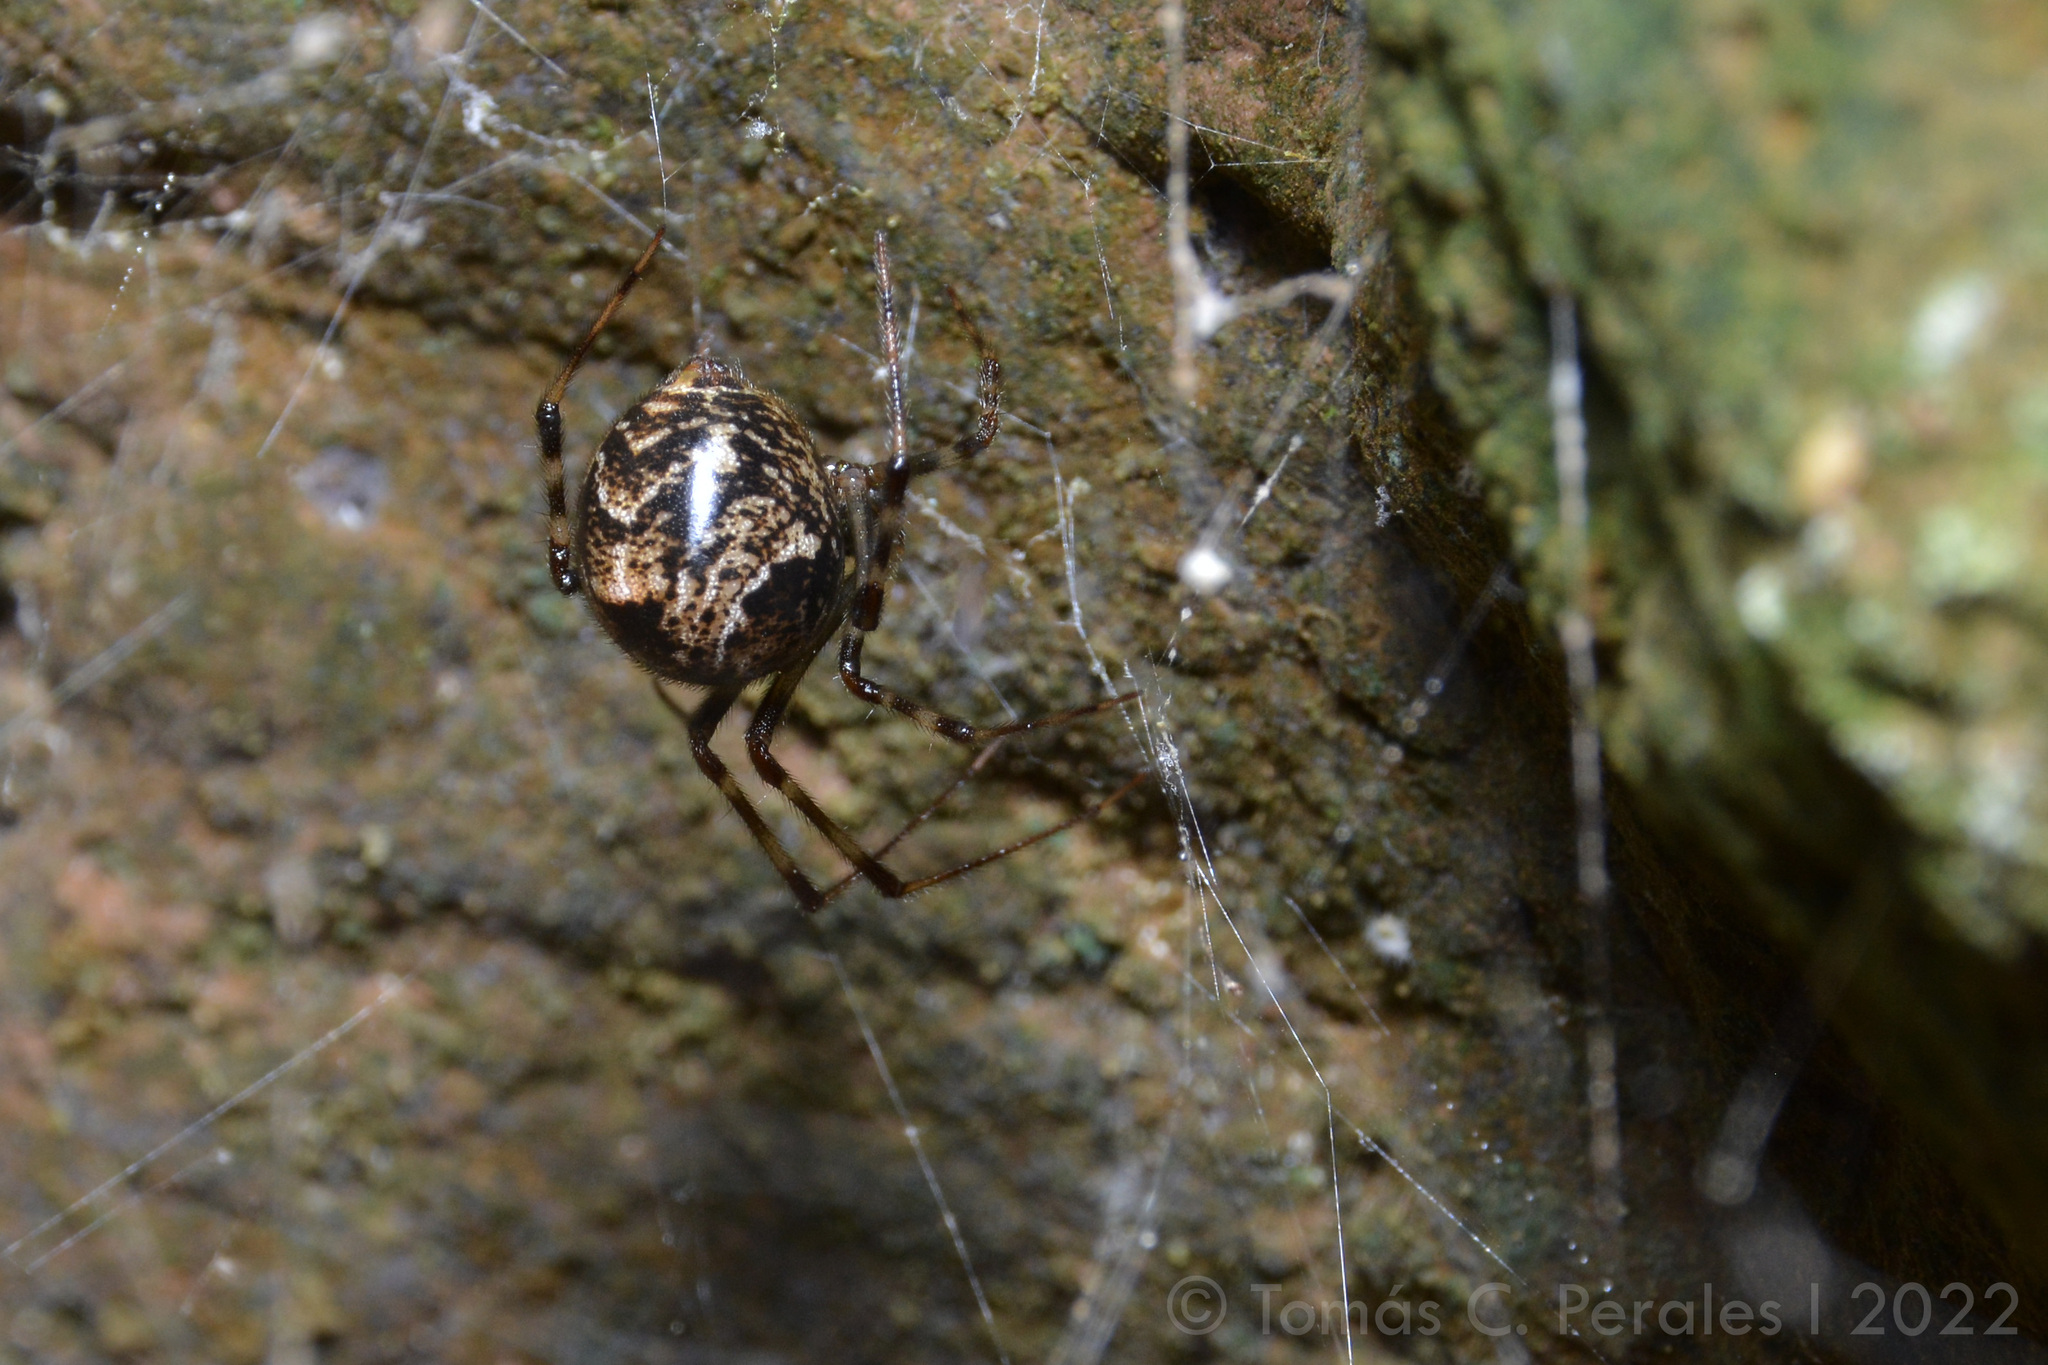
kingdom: Animalia
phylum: Arthropoda
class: Arachnida
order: Araneae
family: Theridiidae
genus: Parasteatoda
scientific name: Parasteatoda tepidariorum
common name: Common house spider
